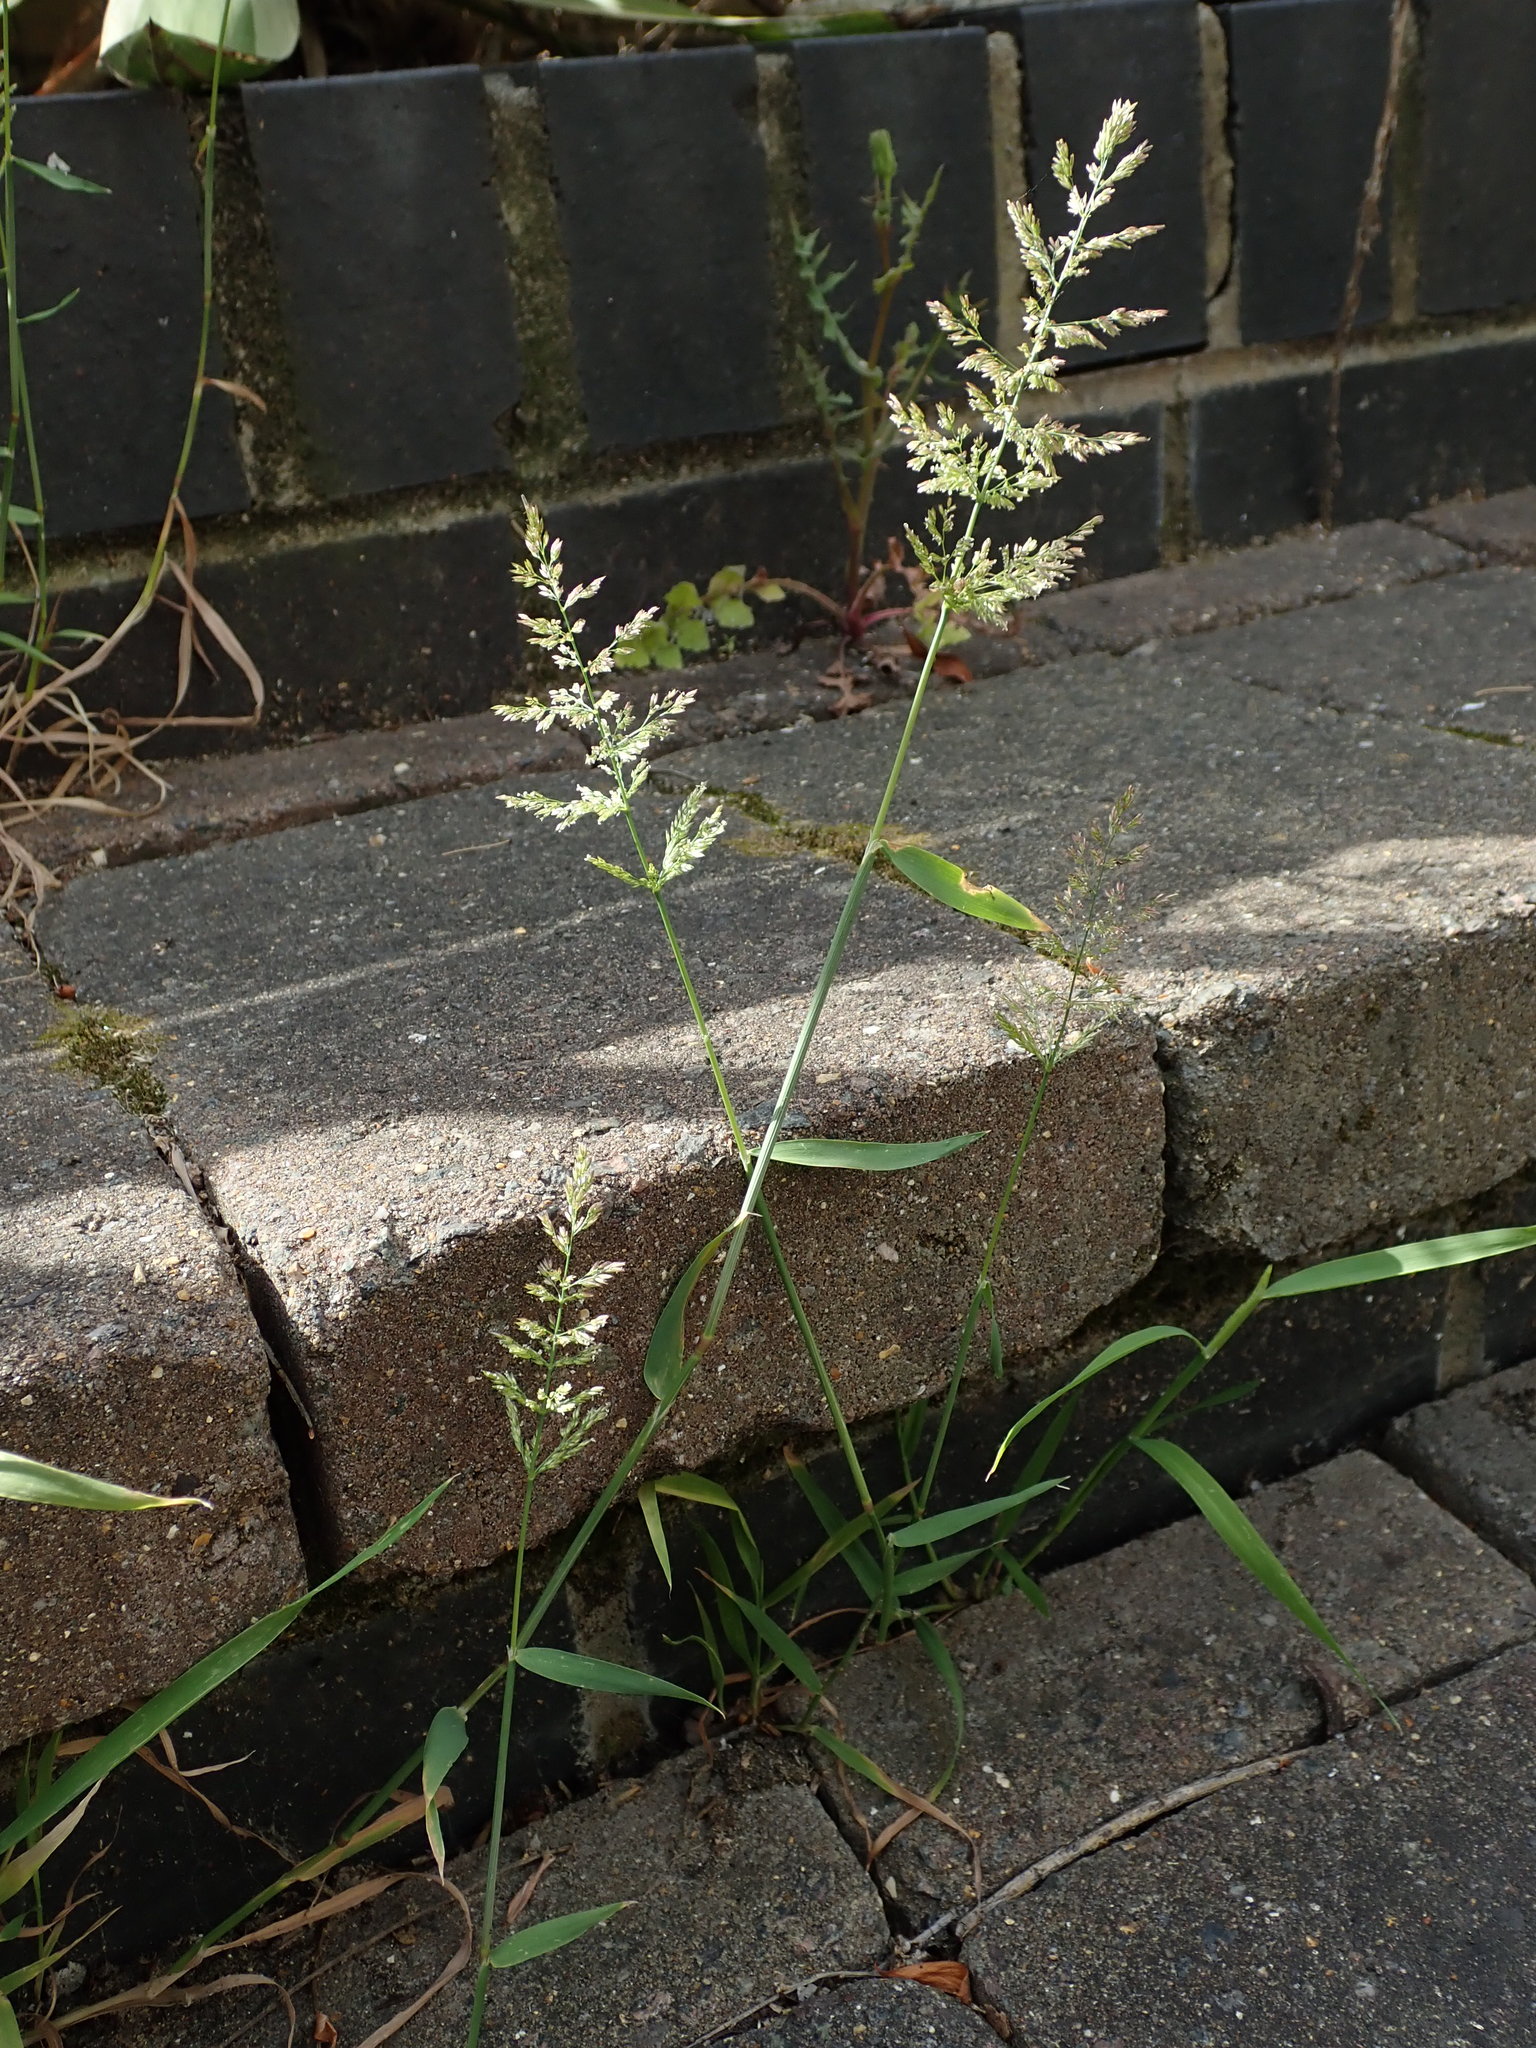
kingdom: Plantae
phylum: Tracheophyta
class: Liliopsida
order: Poales
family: Poaceae
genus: Polypogon
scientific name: Polypogon viridis
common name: Water bent
